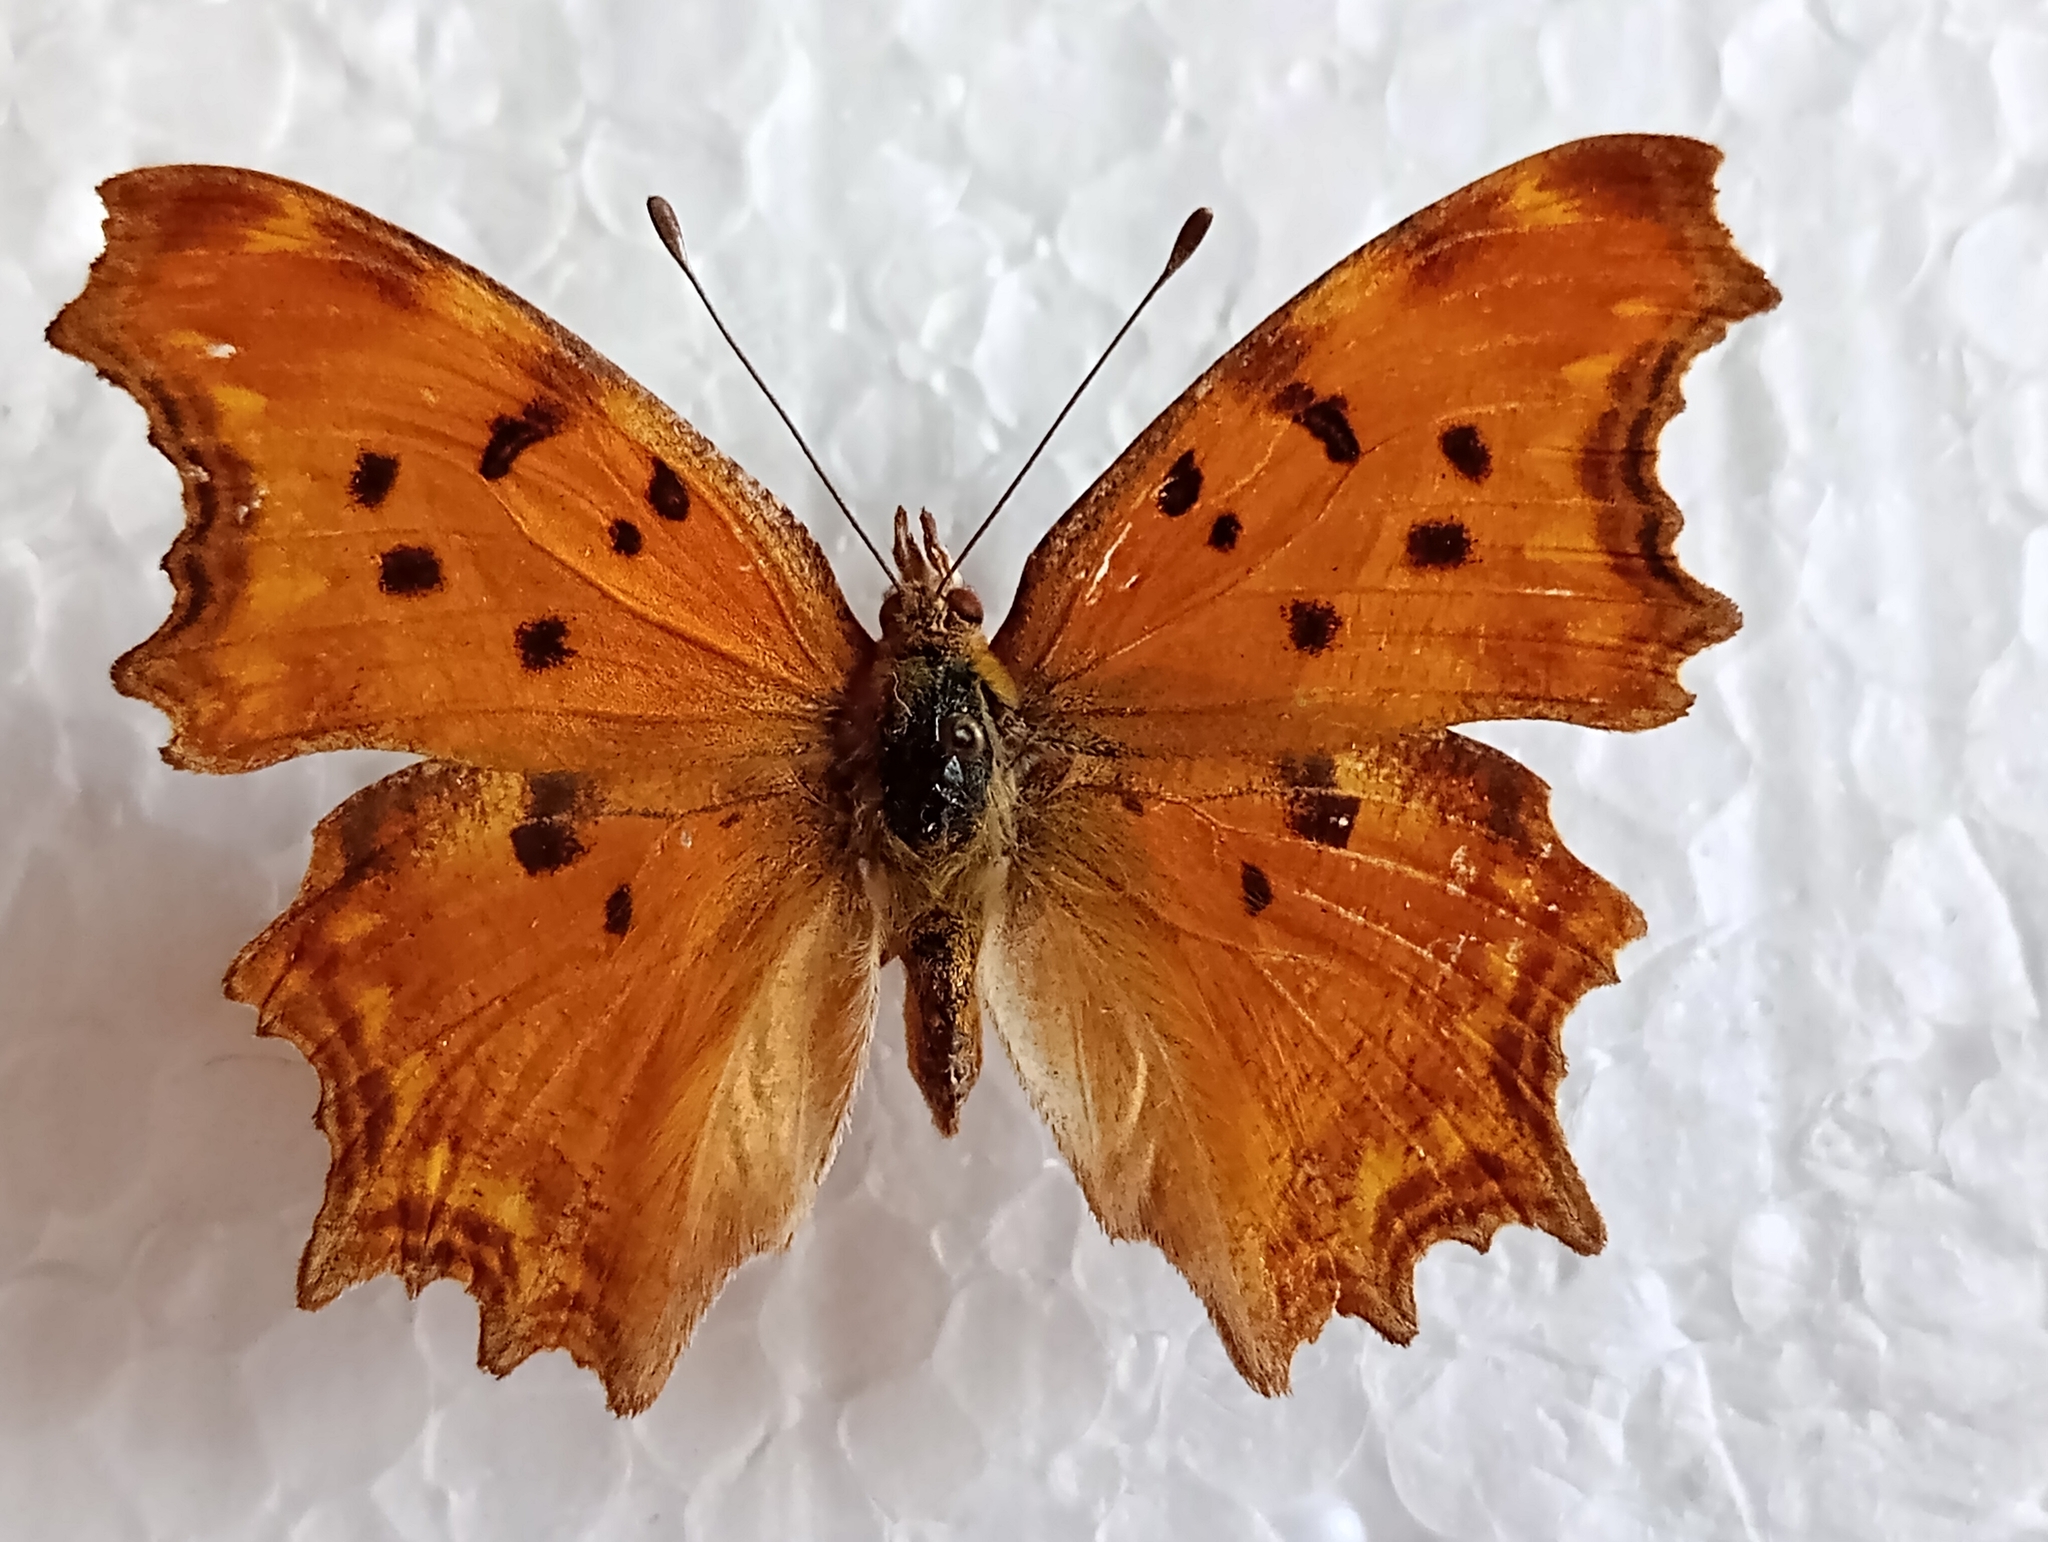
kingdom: Animalia
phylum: Arthropoda
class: Insecta
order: Lepidoptera
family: Nymphalidae
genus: Polygonia
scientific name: Polygonia egea
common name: Southern comma
